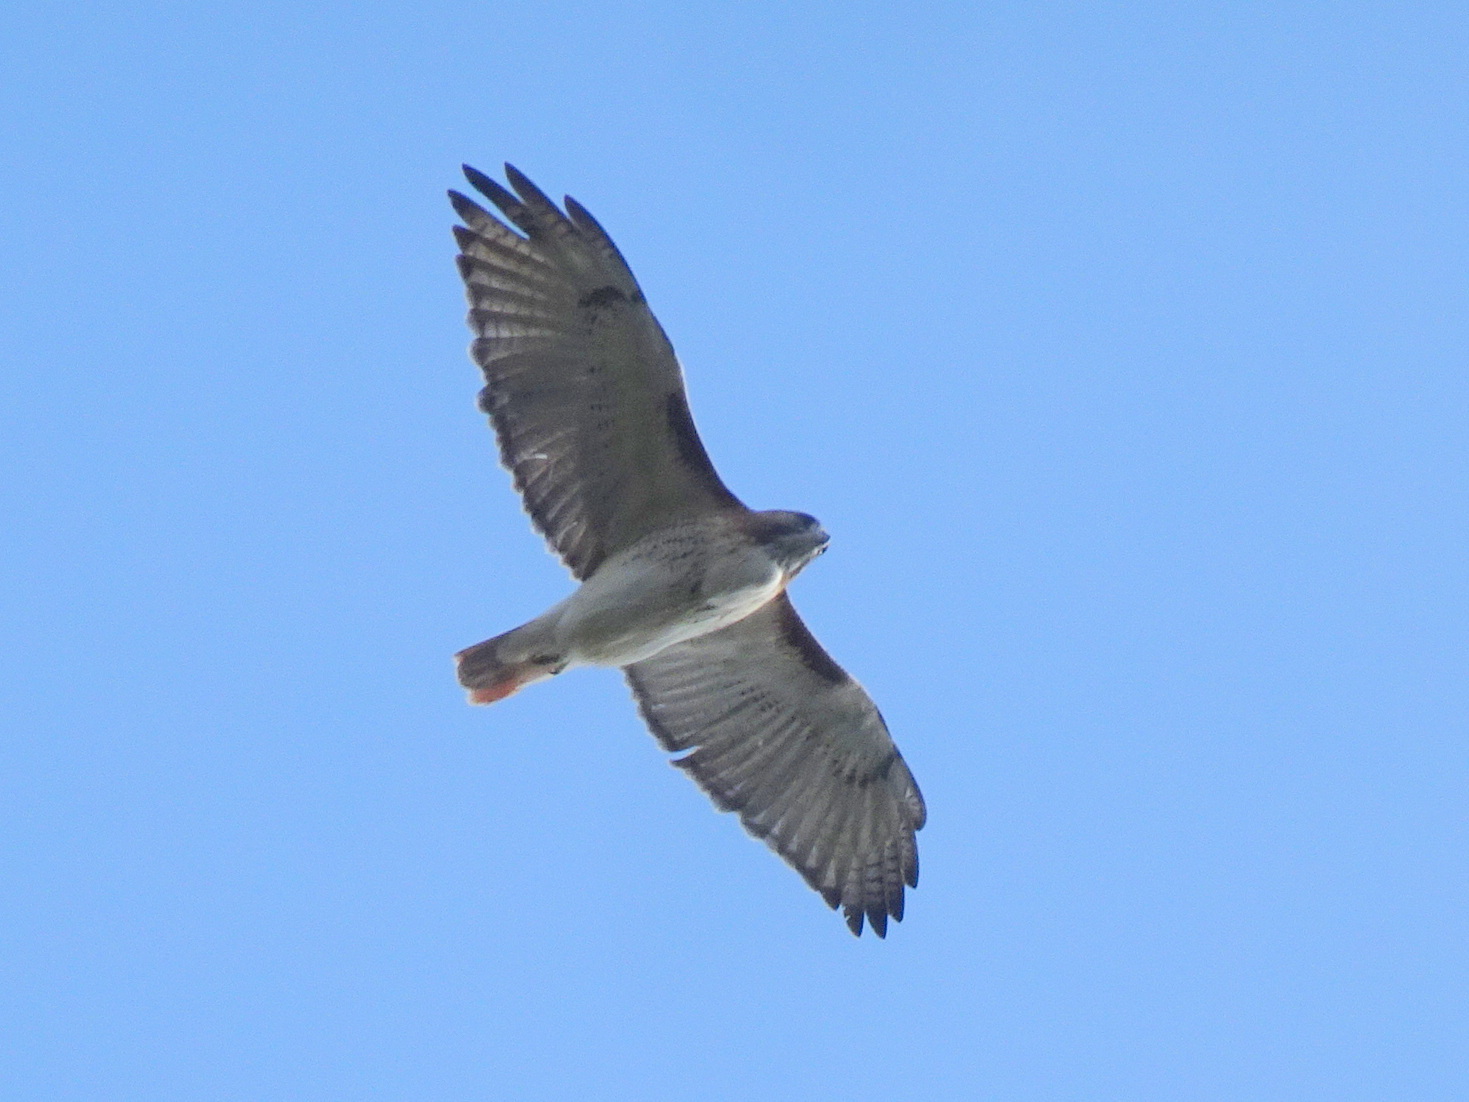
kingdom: Animalia
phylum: Chordata
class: Aves
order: Accipitriformes
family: Accipitridae
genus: Buteo
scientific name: Buteo jamaicensis
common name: Red-tailed hawk
